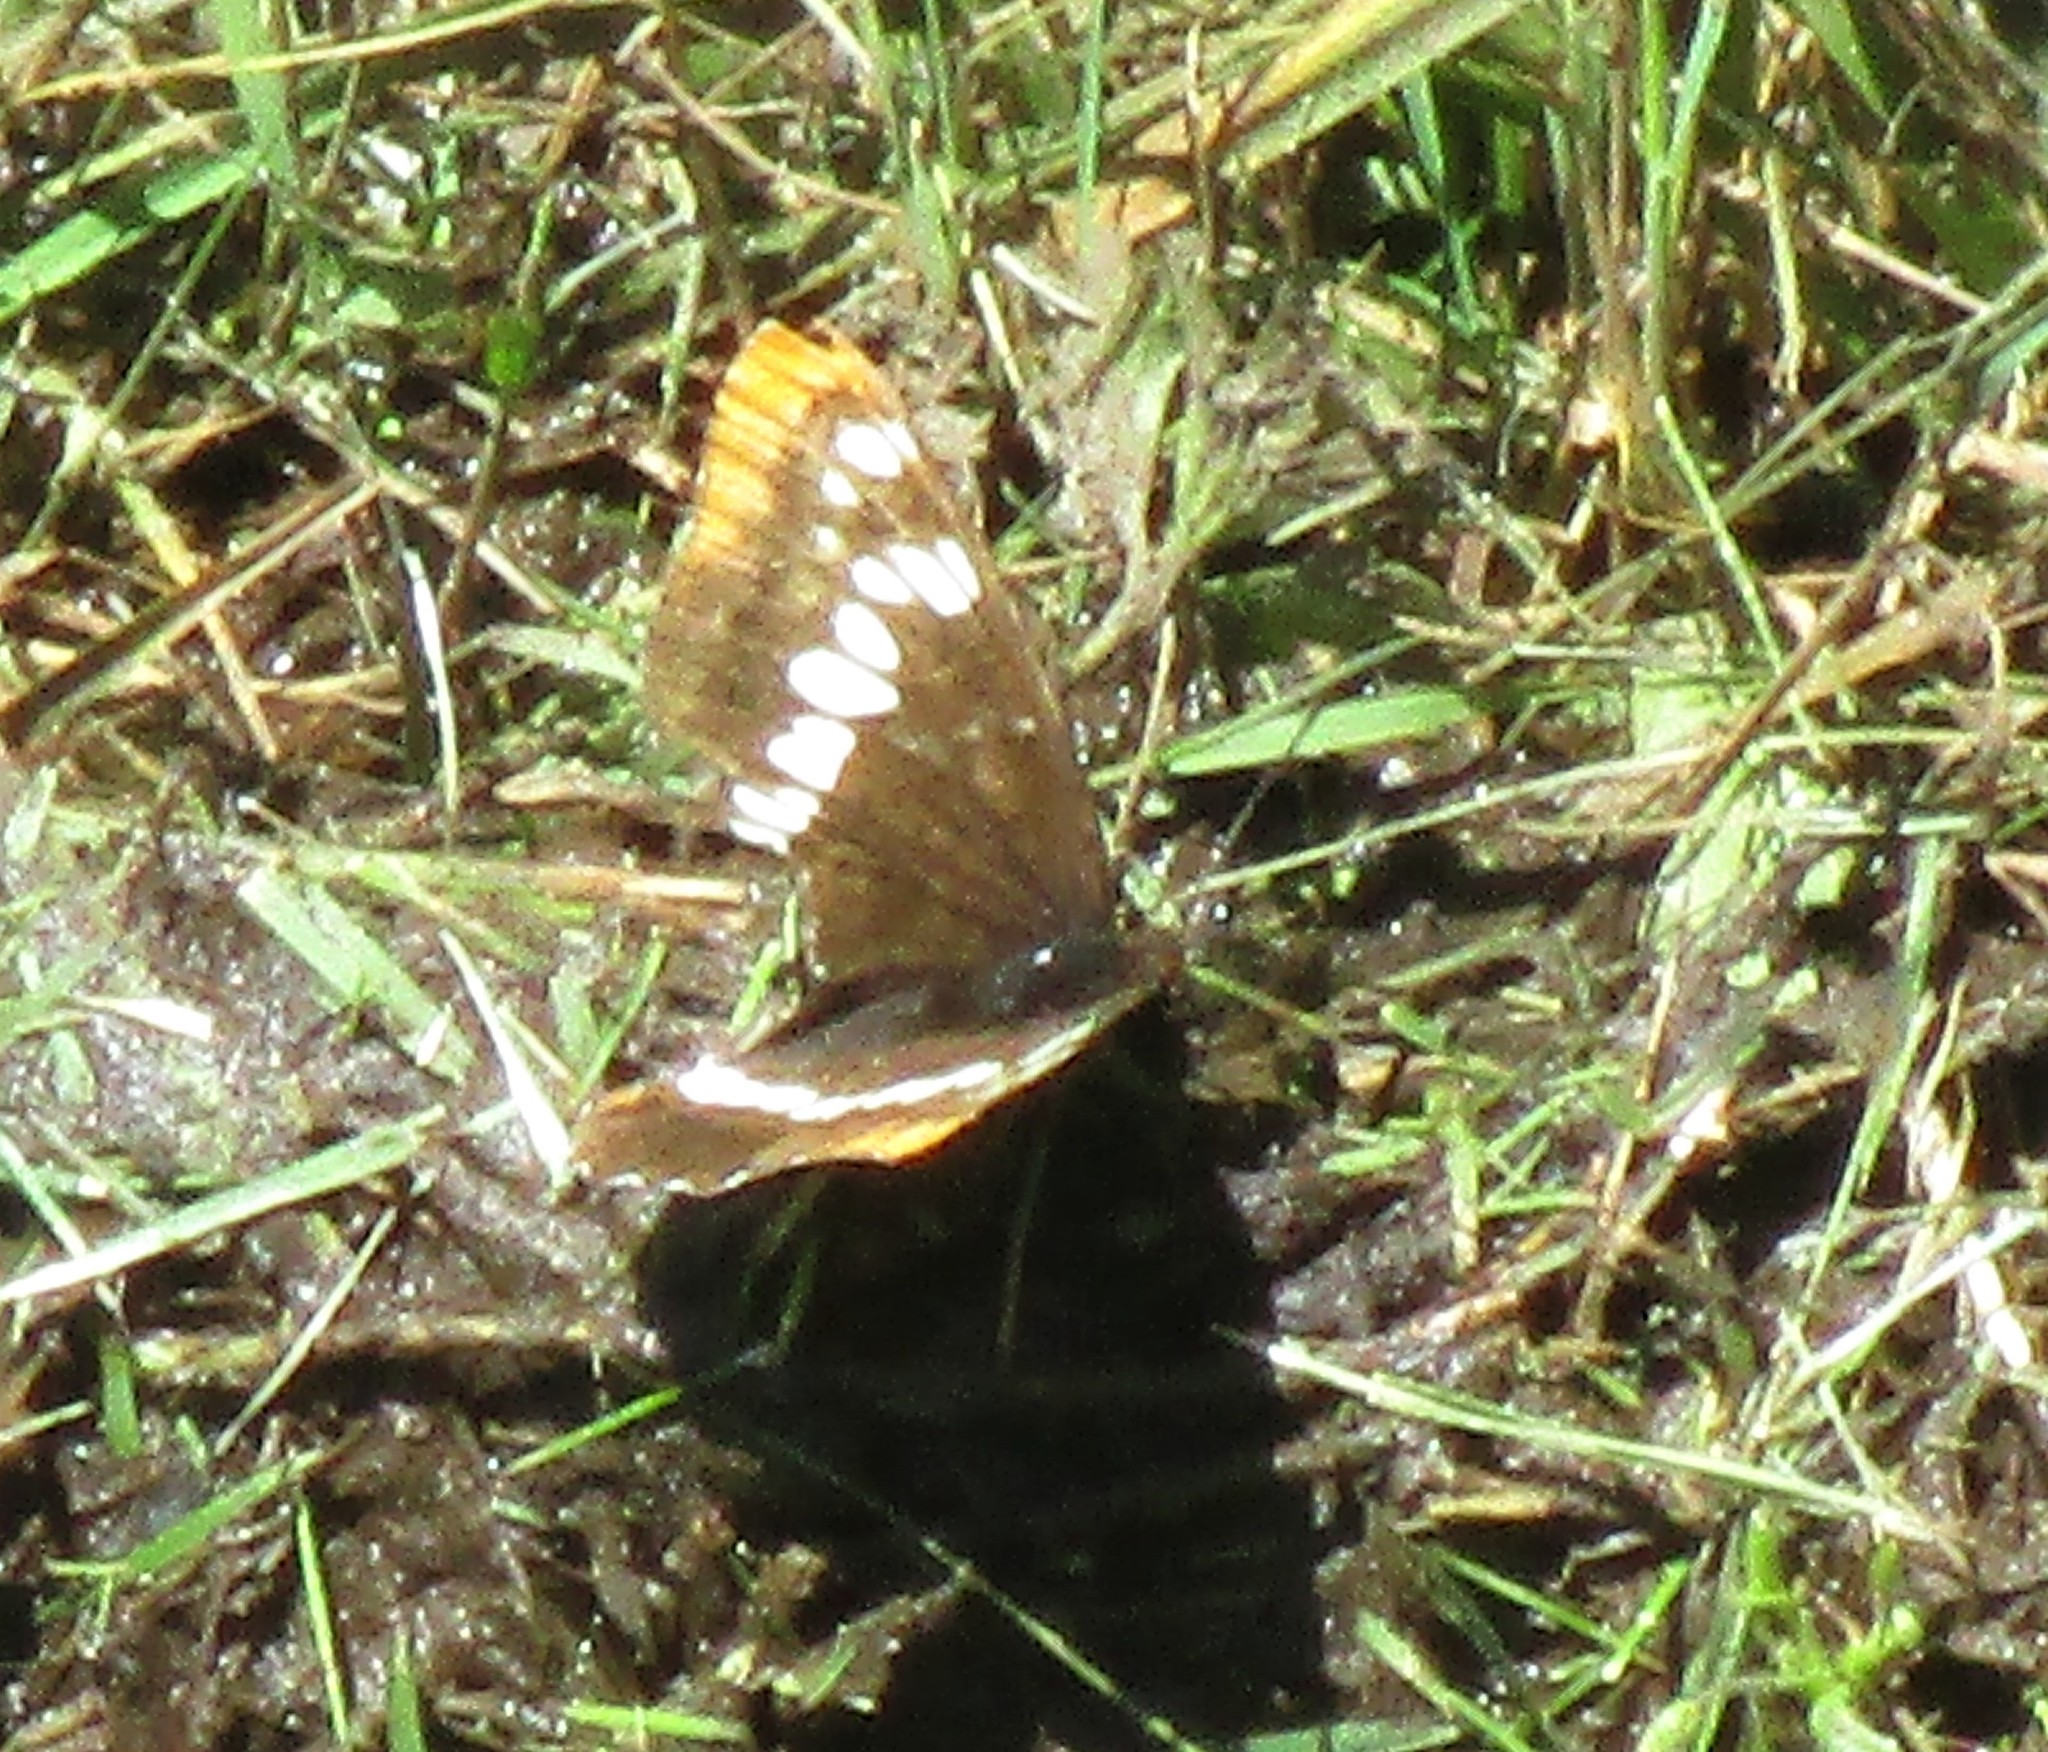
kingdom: Animalia
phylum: Arthropoda
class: Insecta
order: Lepidoptera
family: Nymphalidae
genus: Limenitis
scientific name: Limenitis lorquini
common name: Lorquin's admiral
